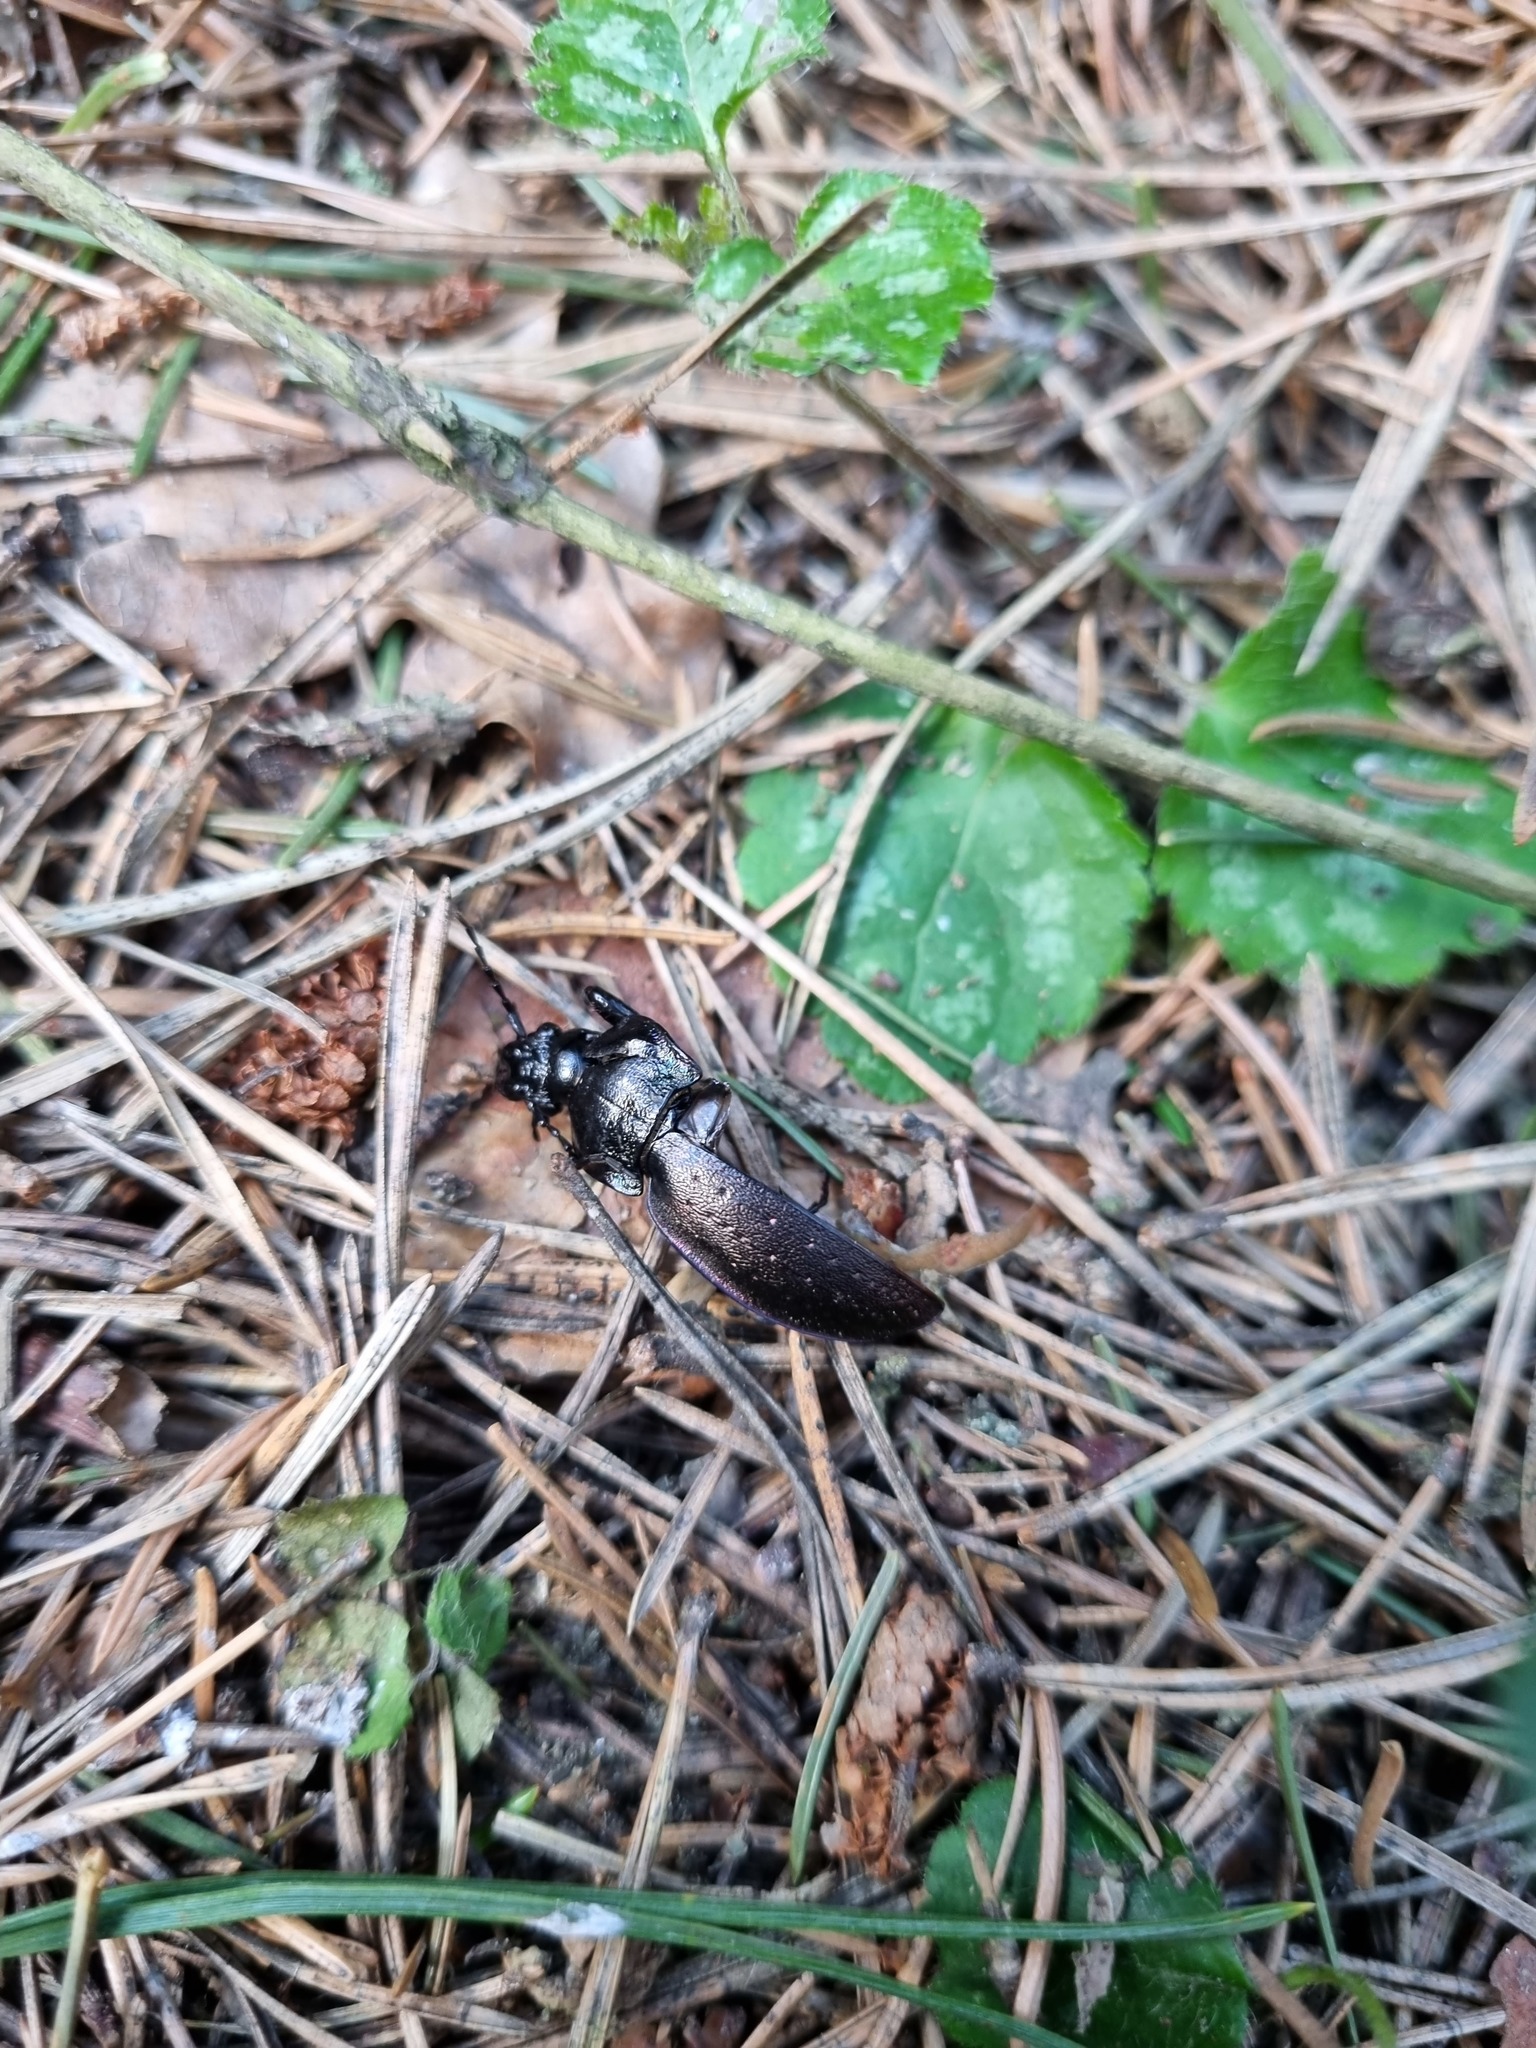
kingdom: Animalia
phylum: Arthropoda
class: Insecta
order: Coleoptera
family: Carabidae
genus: Carabus
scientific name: Carabus nemoralis
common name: European ground beetle
